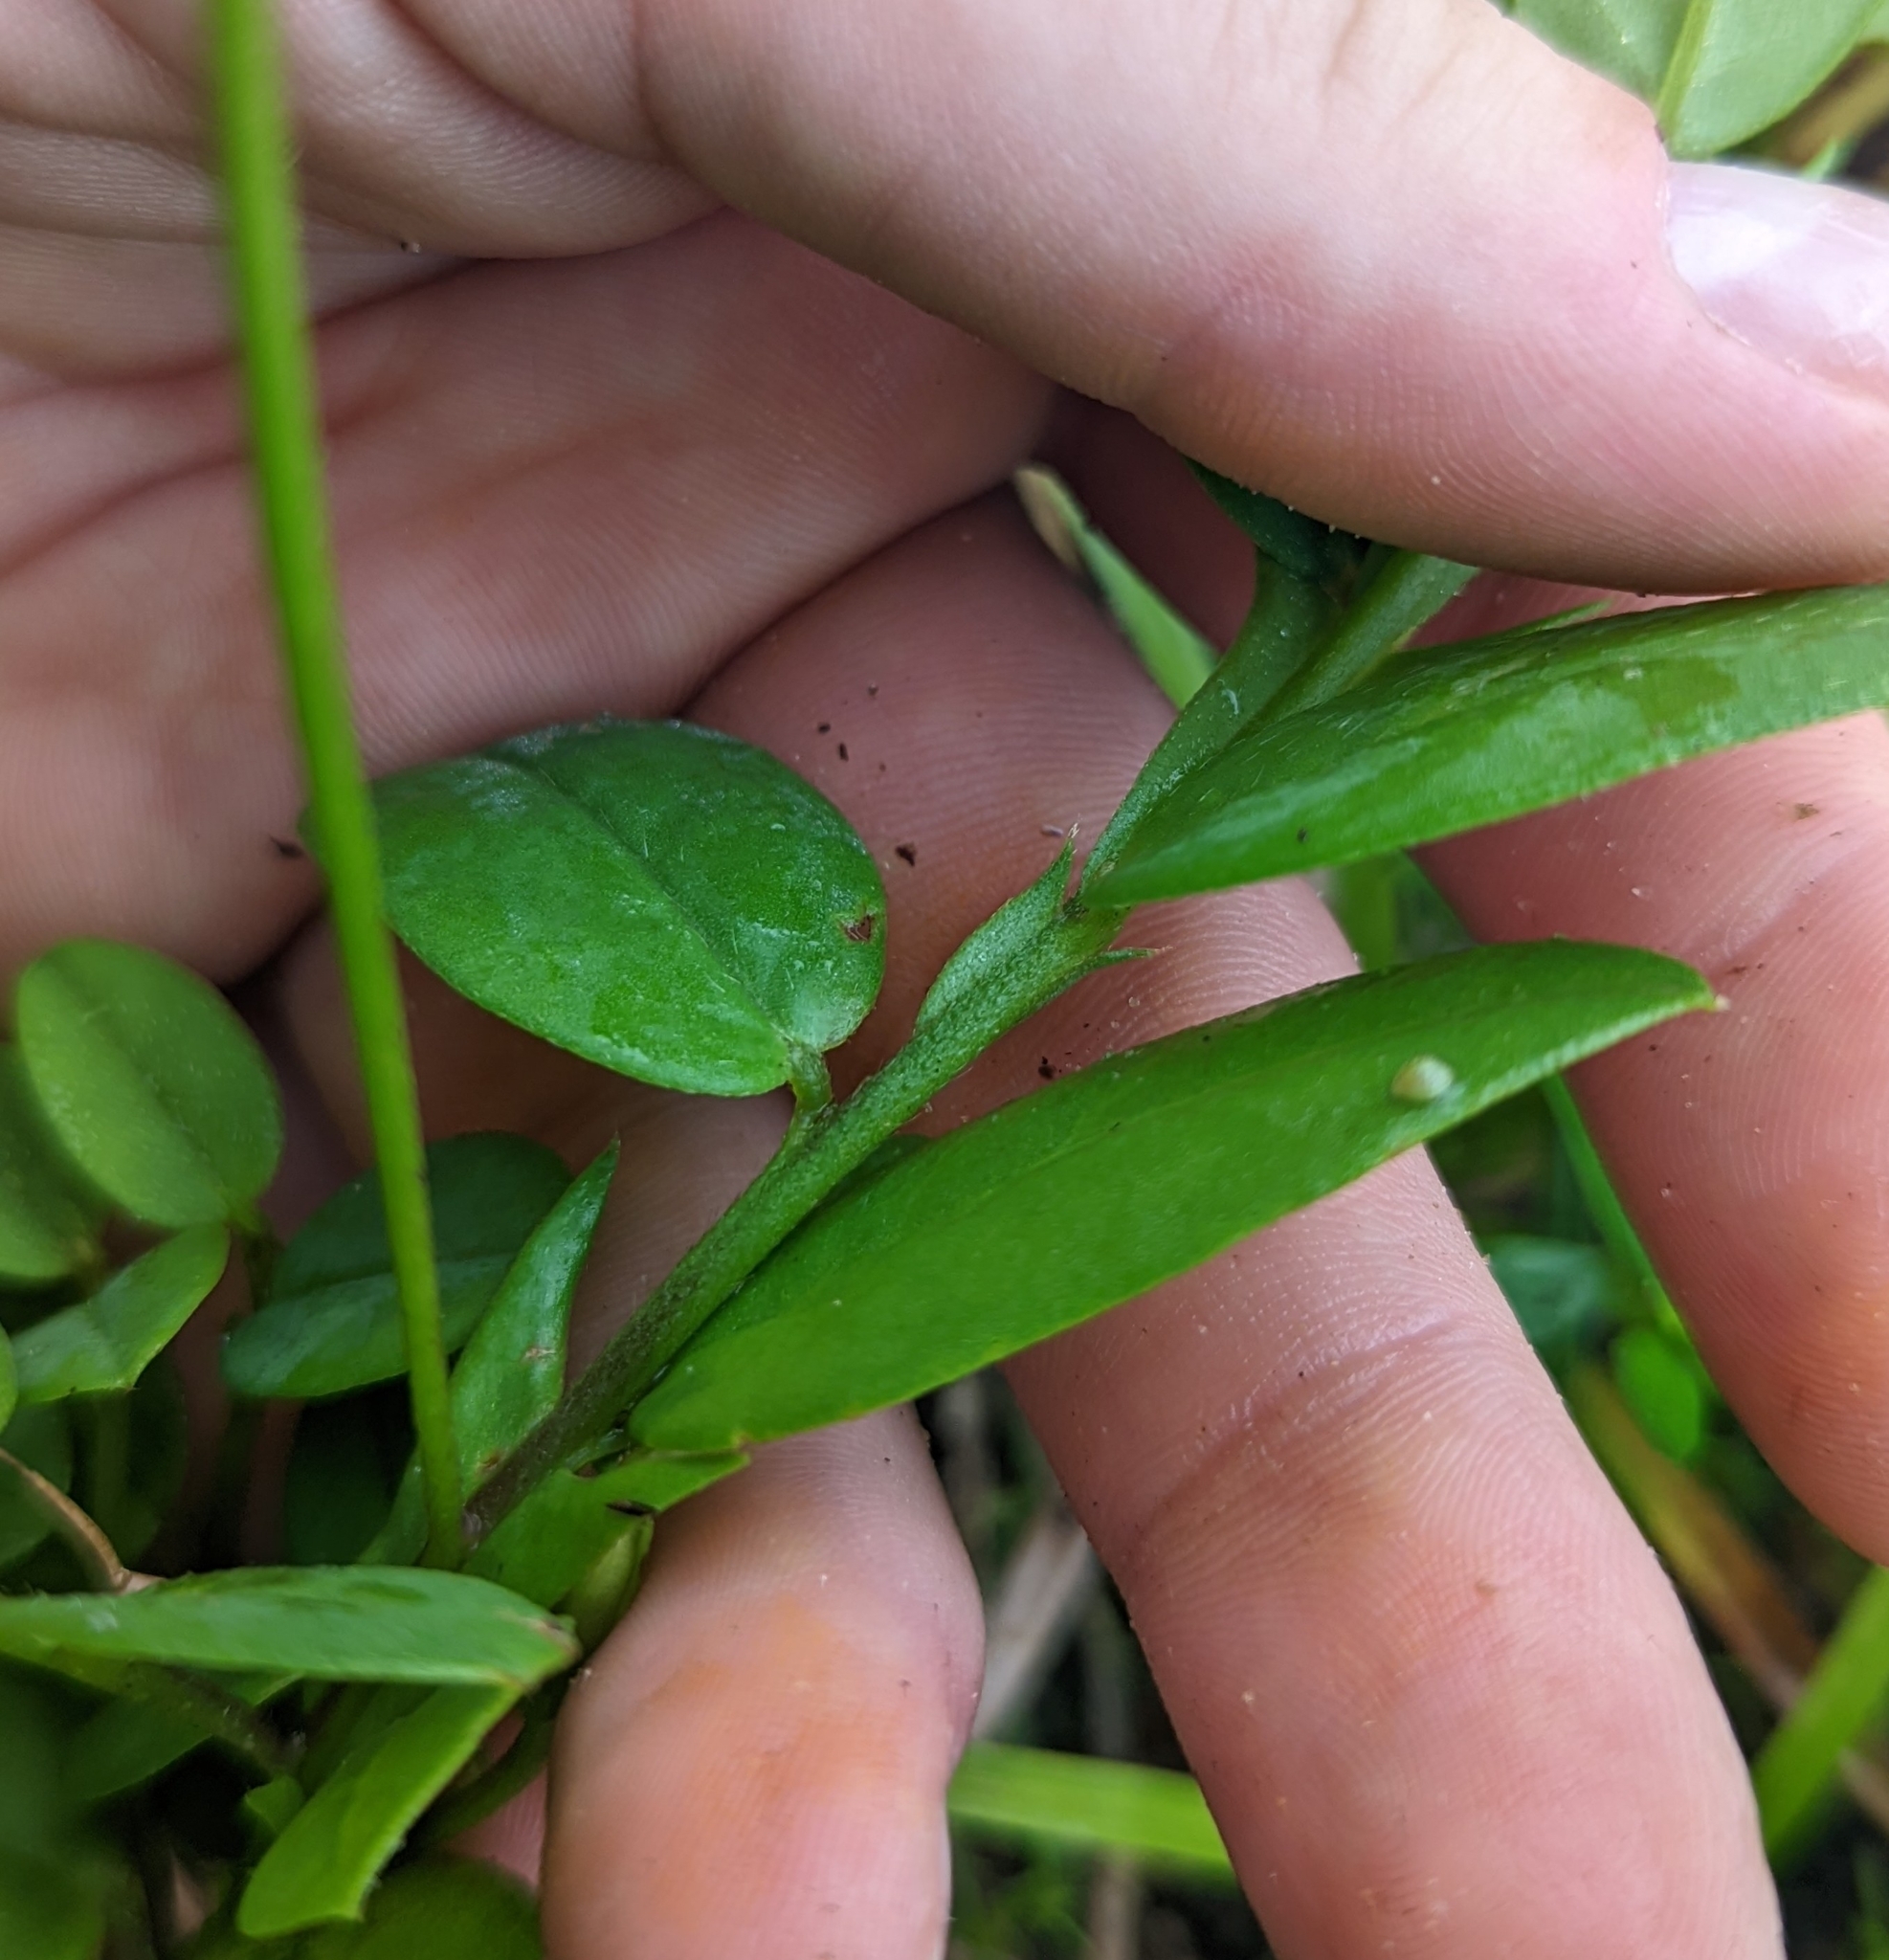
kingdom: Plantae
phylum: Tracheophyta
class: Magnoliopsida
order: Fabales
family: Fabaceae
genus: Crotalaria
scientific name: Crotalaria rotundifolia
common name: Prostrate rattlebox
